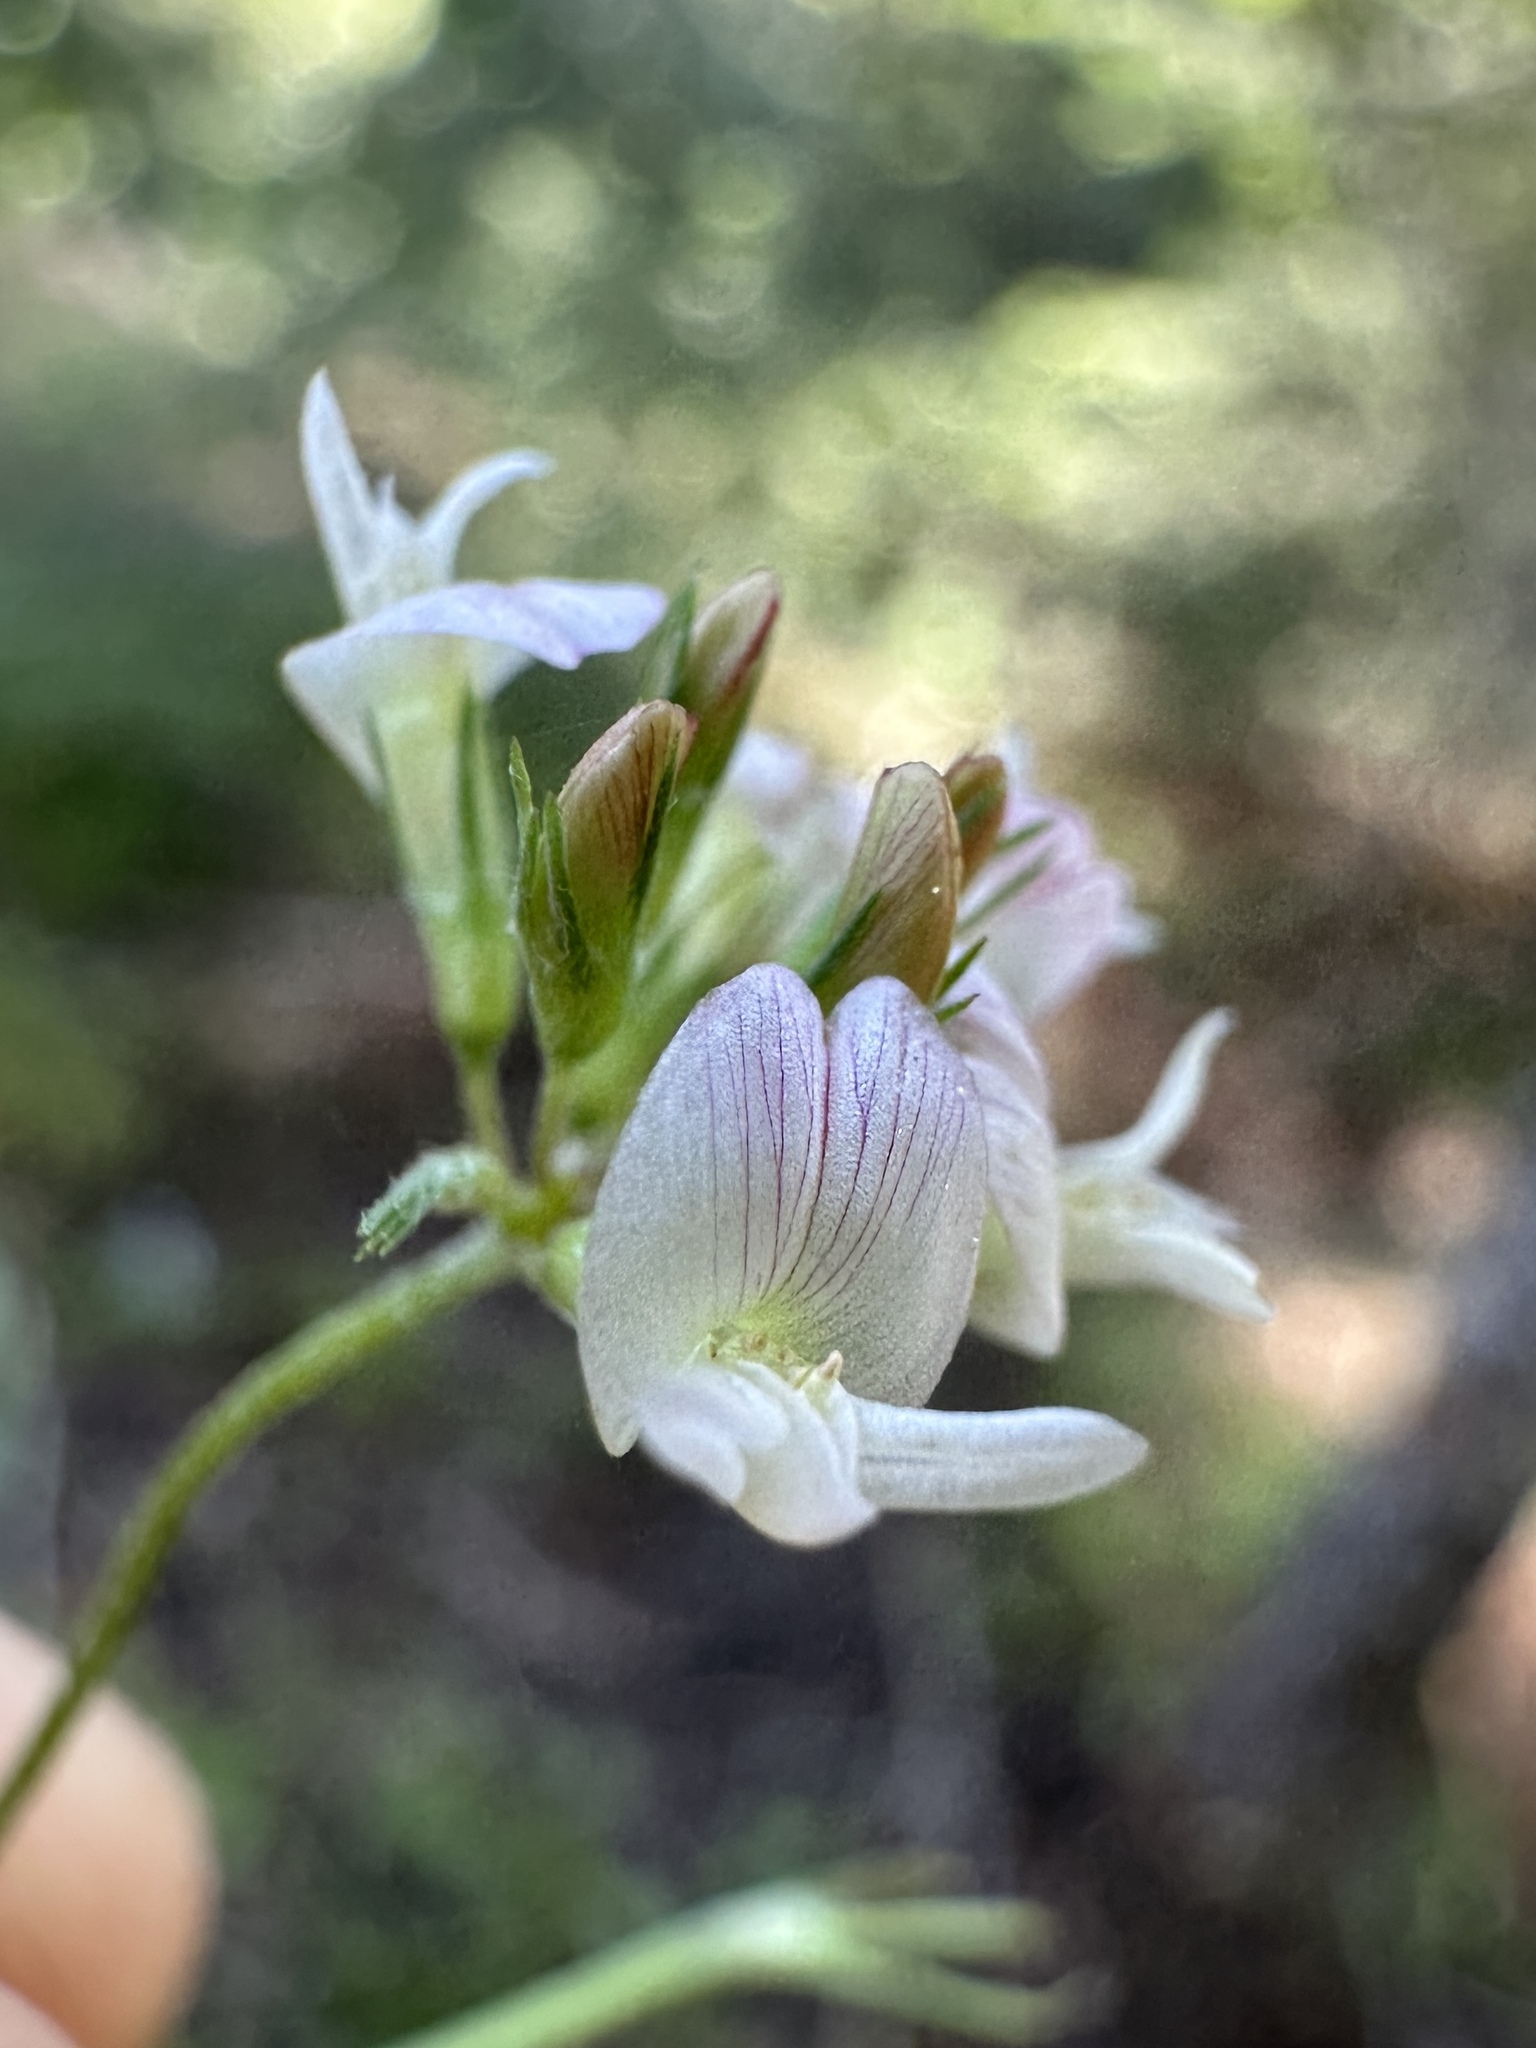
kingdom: Plantae
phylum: Tracheophyta
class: Magnoliopsida
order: Fabales
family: Fabaceae
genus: Trifolium
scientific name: Trifolium breweri
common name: Forest clover
